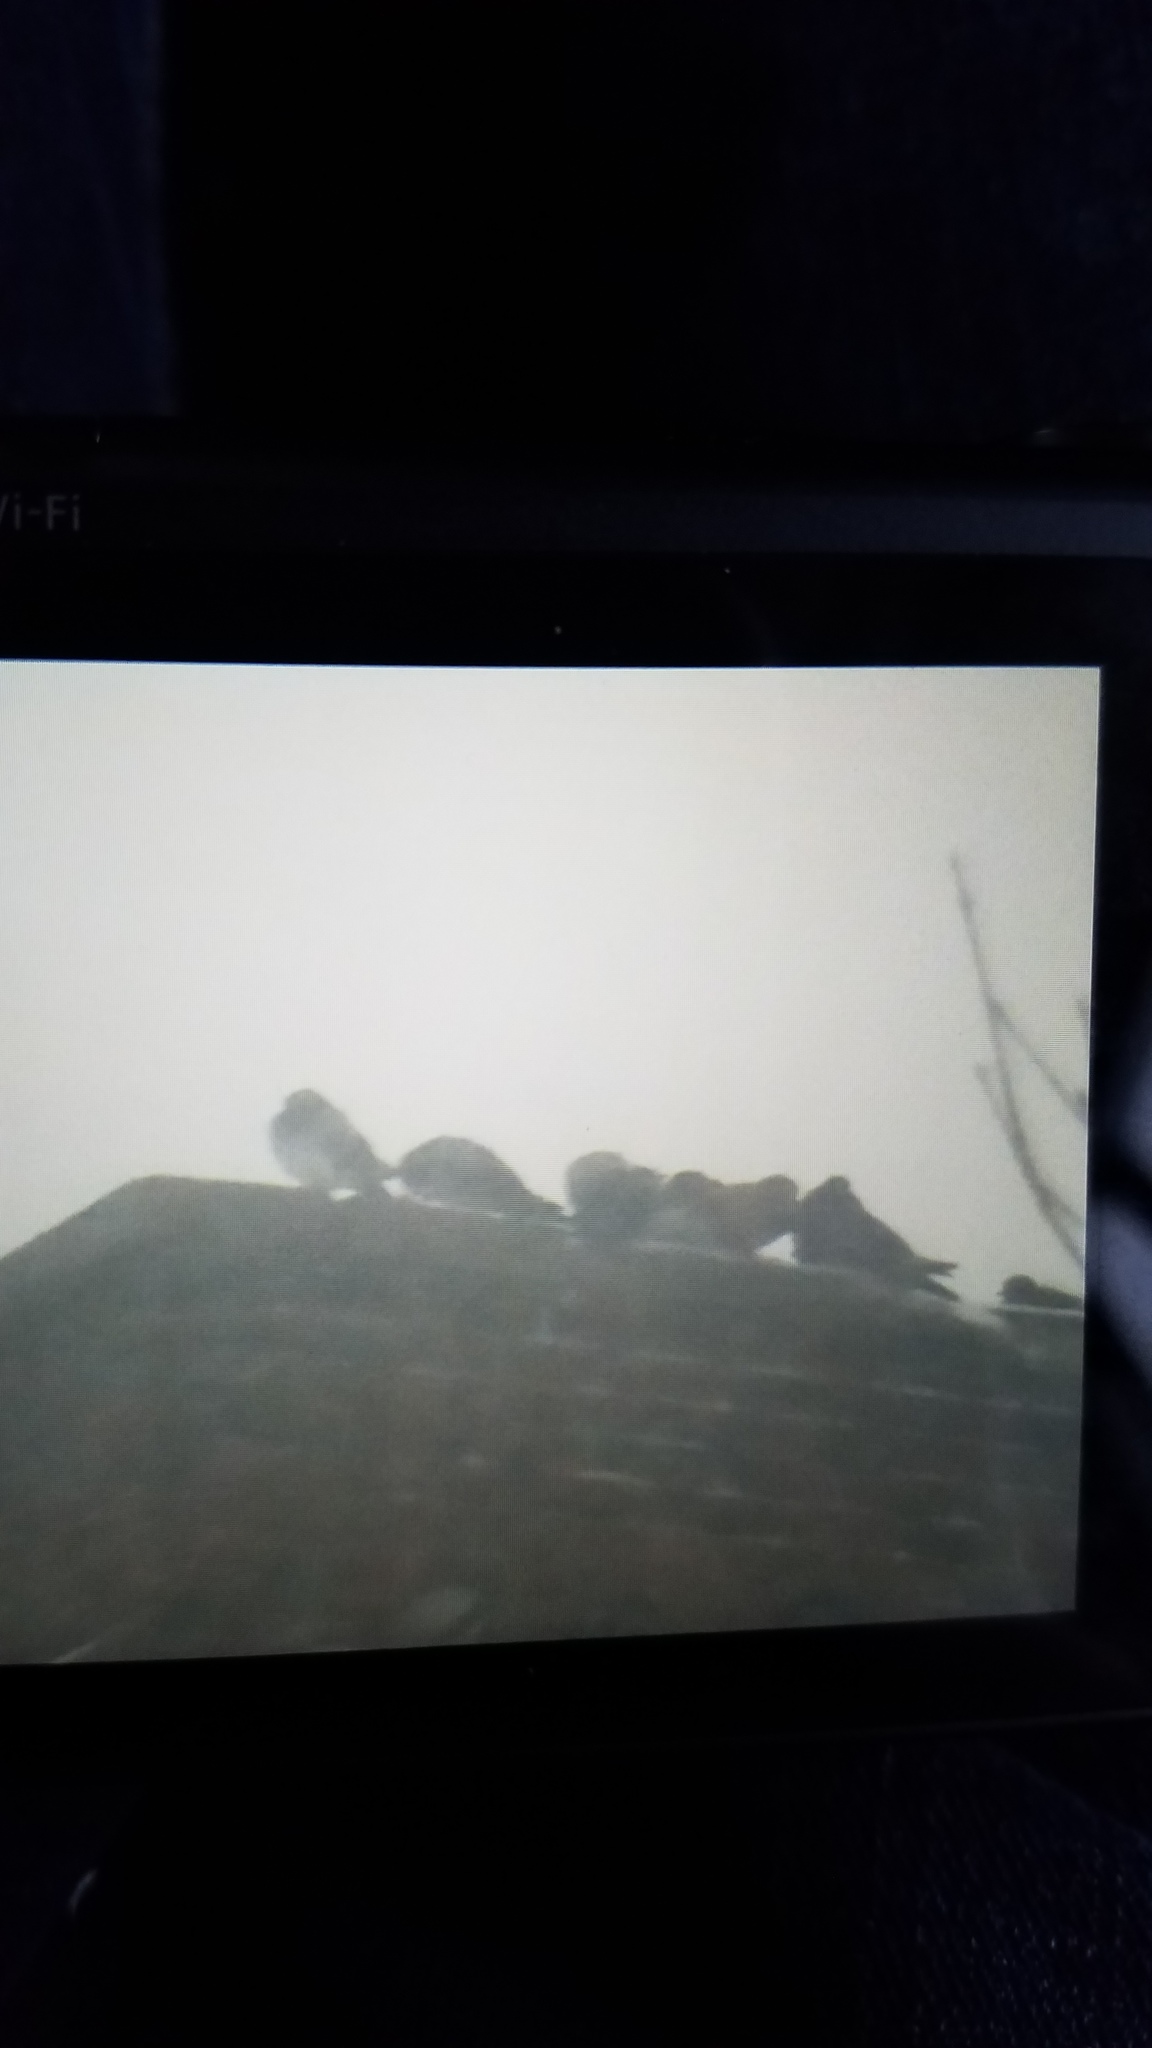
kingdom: Animalia
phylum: Chordata
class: Aves
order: Columbiformes
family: Columbidae
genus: Columba
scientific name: Columba livia
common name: Rock pigeon
